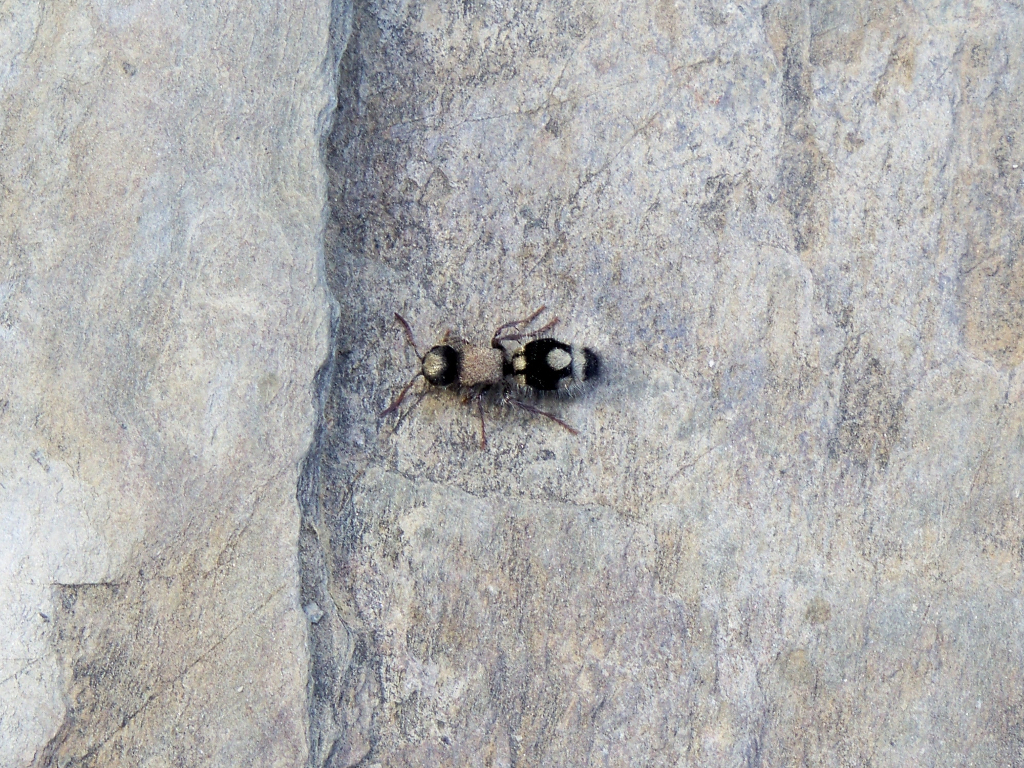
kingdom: Animalia
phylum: Arthropoda
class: Insecta
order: Hymenoptera
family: Mutillidae
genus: Ronisia
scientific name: Ronisia ghilianii
